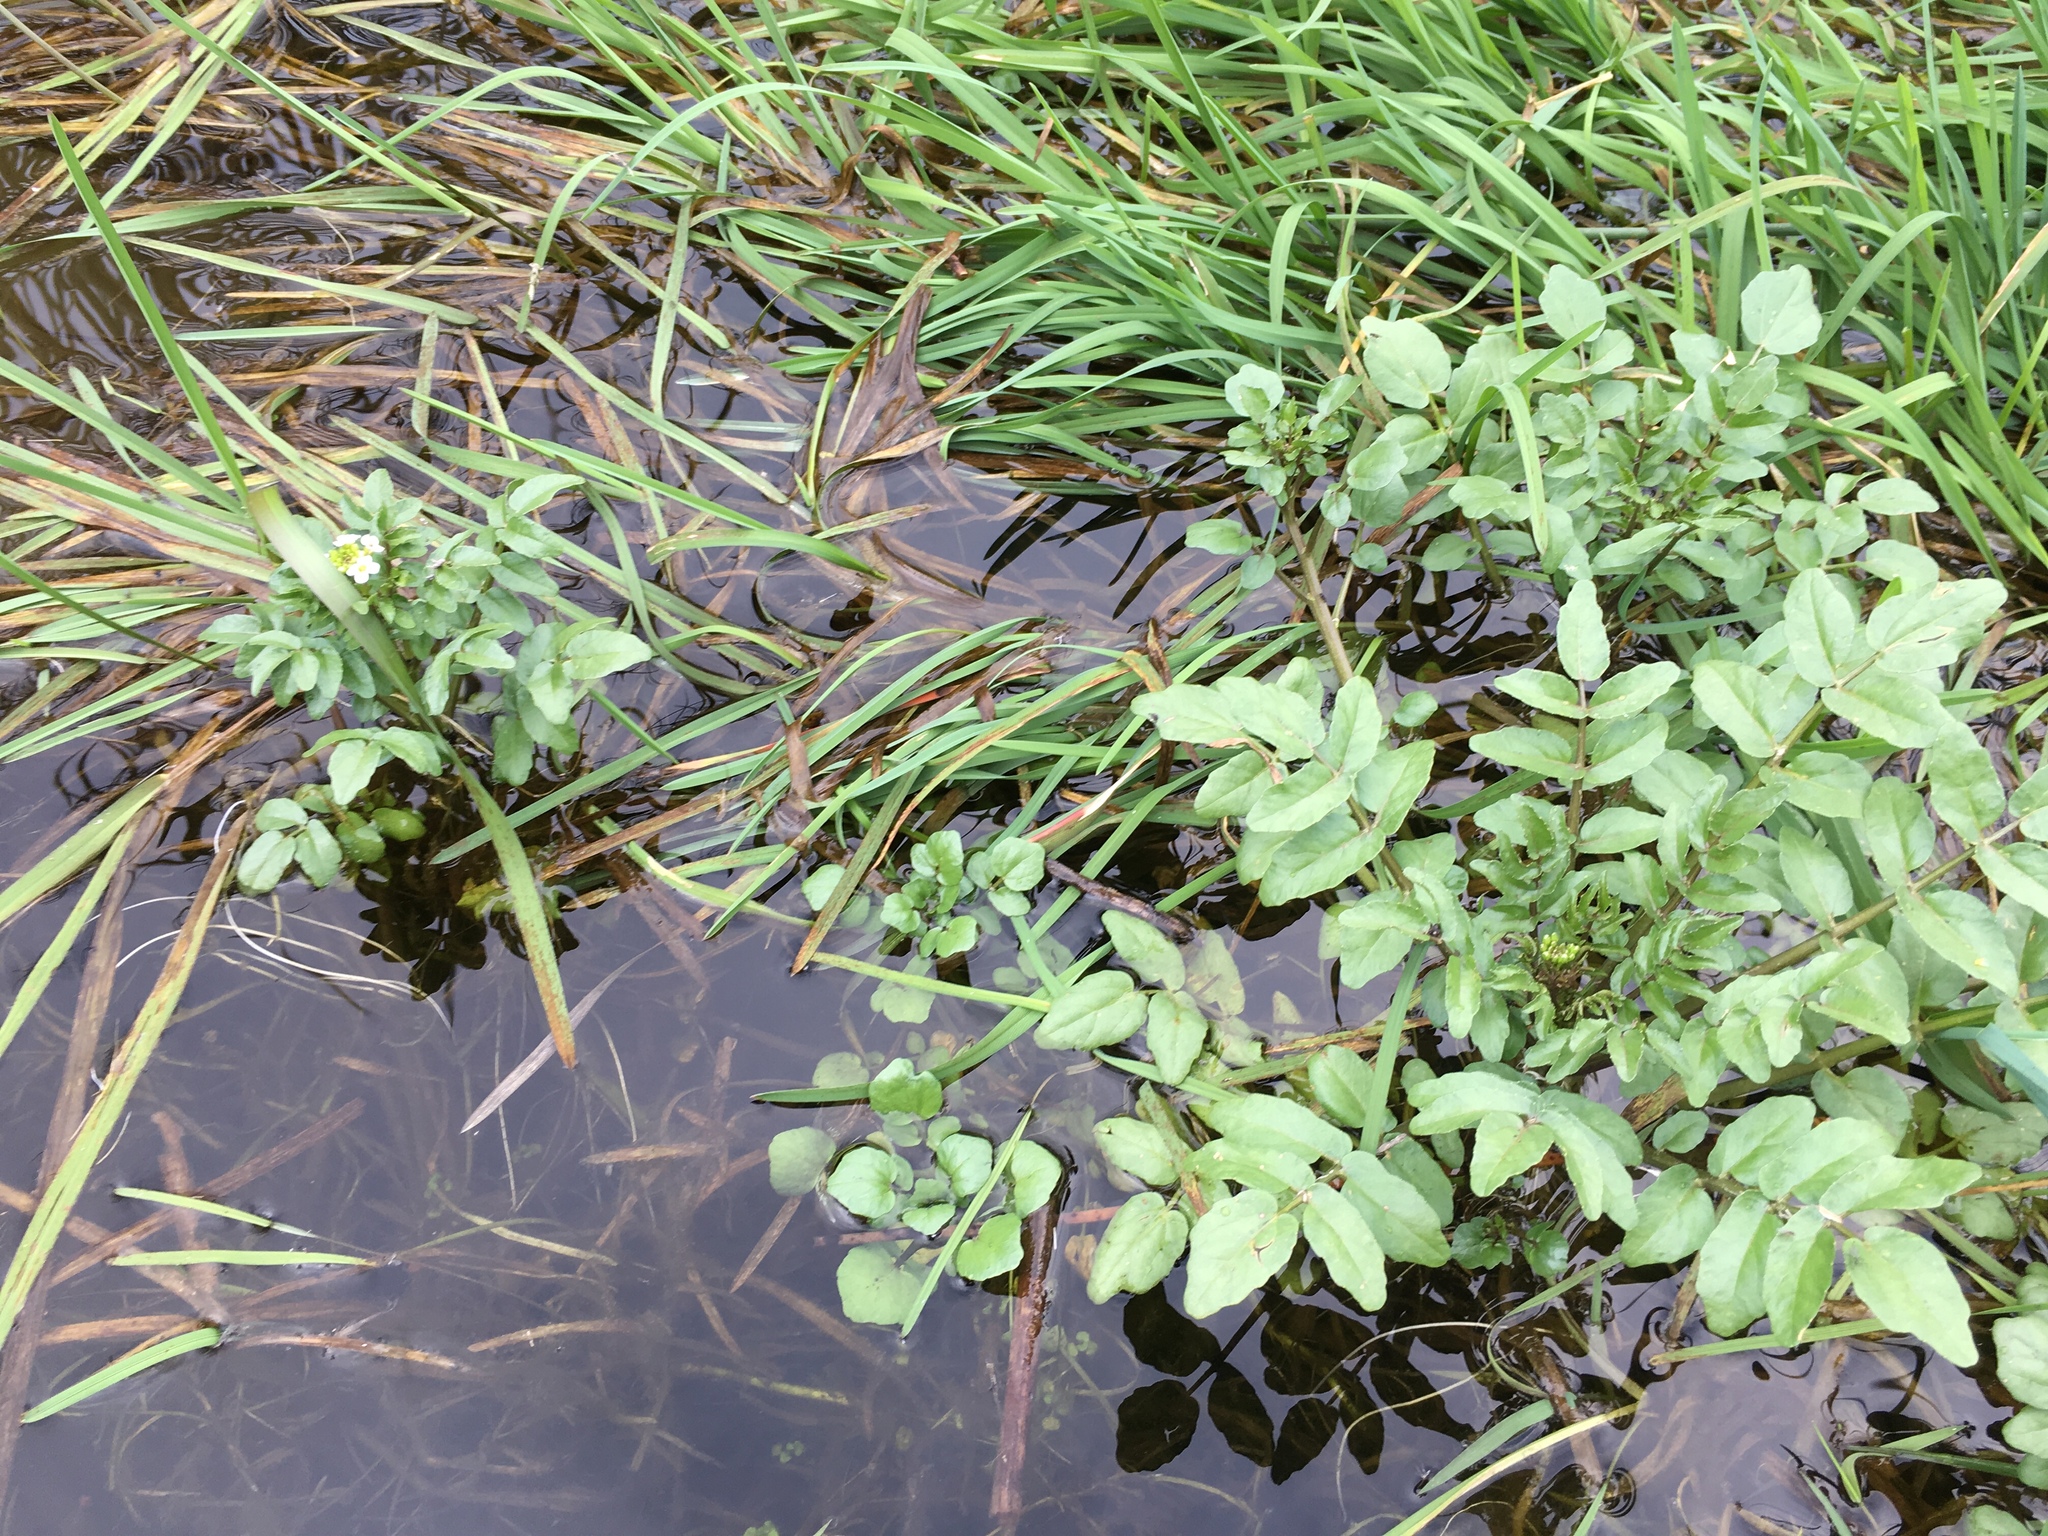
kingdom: Plantae
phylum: Tracheophyta
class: Magnoliopsida
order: Brassicales
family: Brassicaceae
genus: Nasturtium
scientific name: Nasturtium officinale
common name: Watercress
